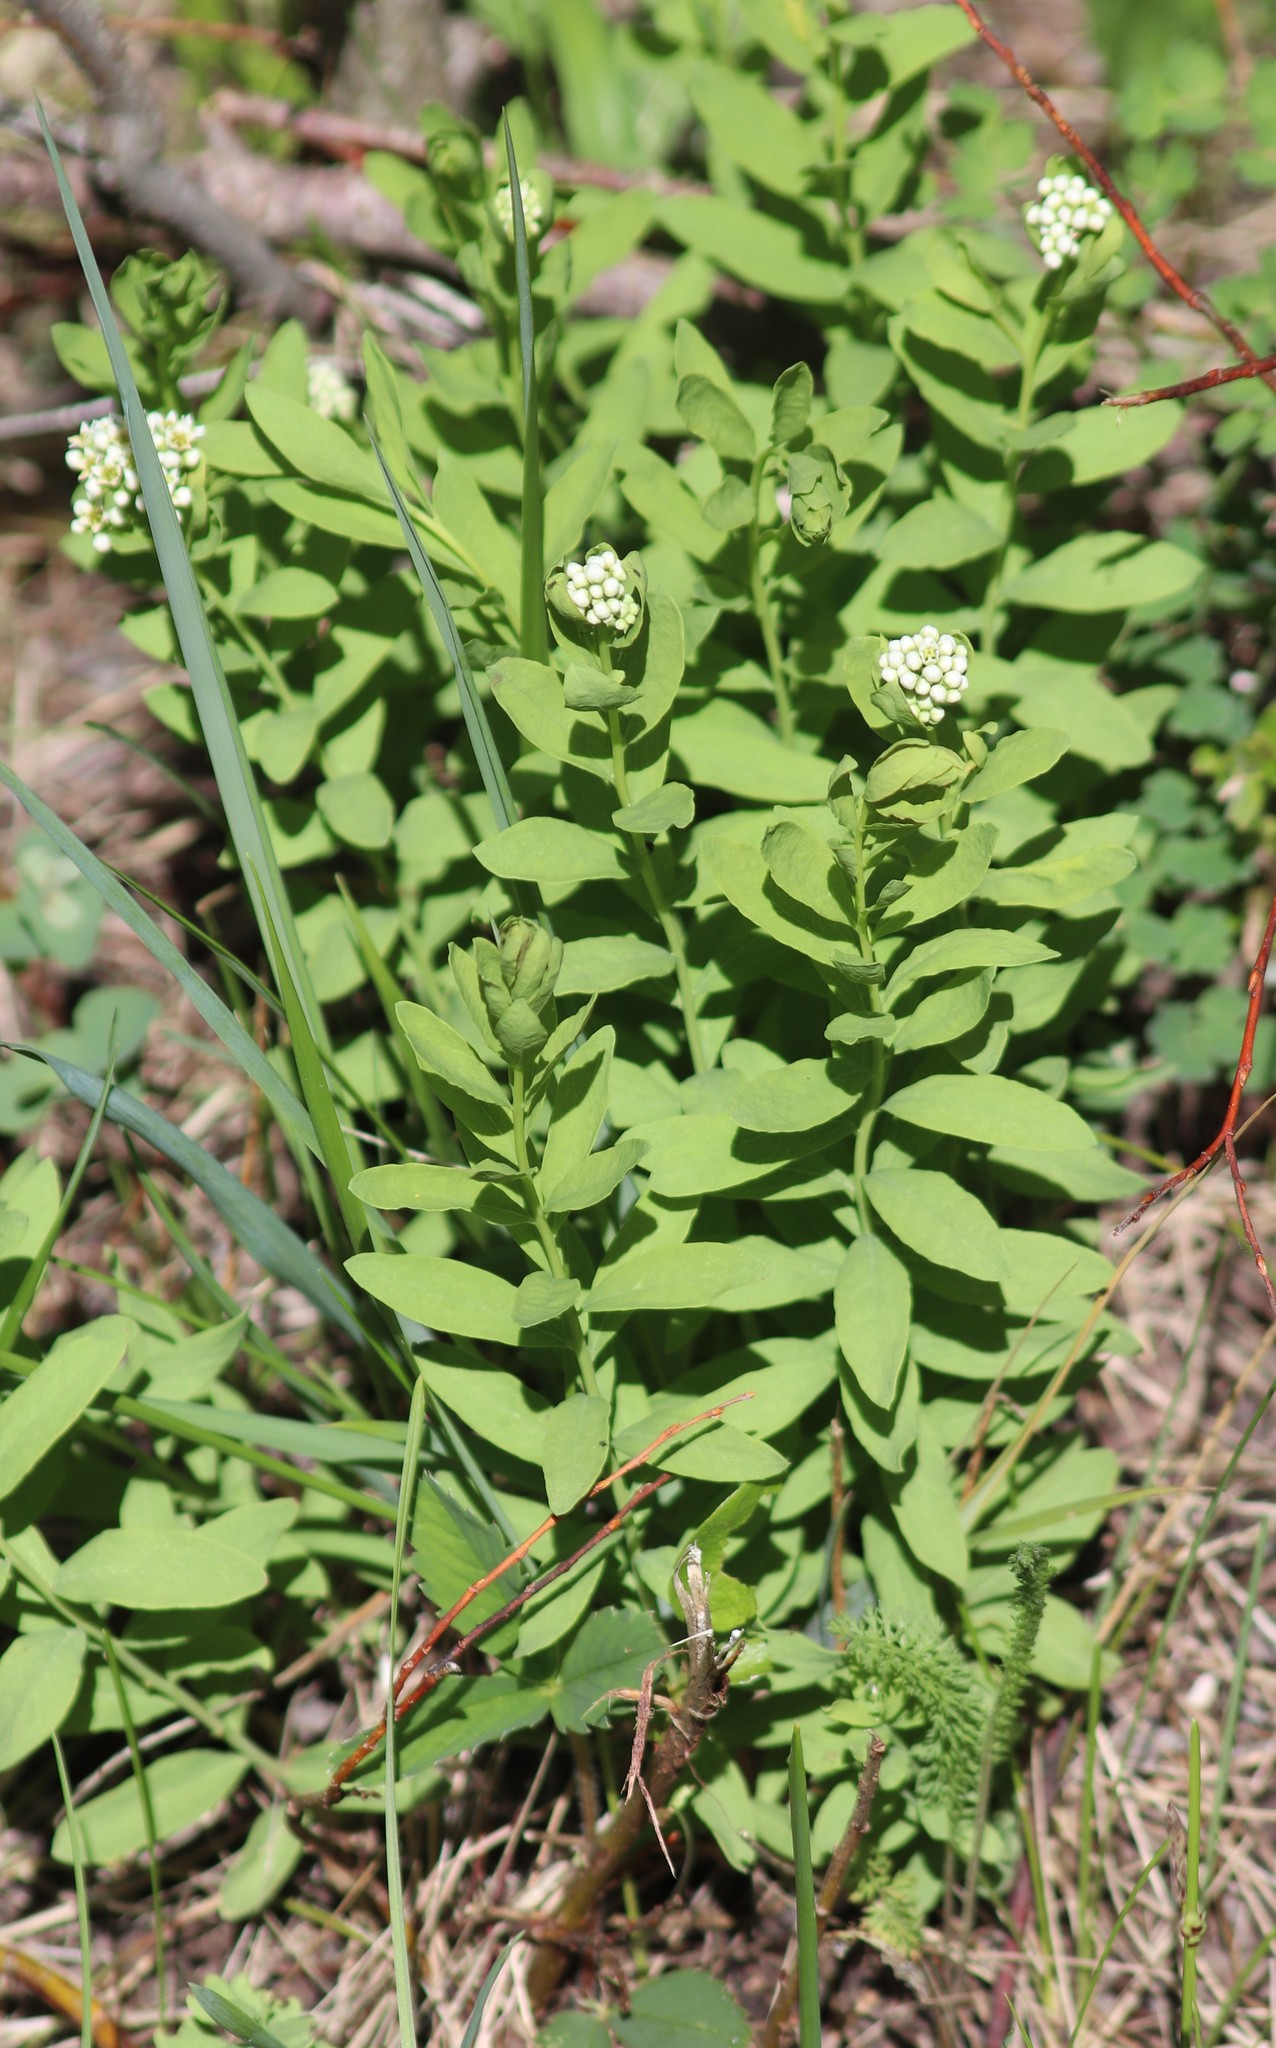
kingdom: Plantae
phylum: Tracheophyta
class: Magnoliopsida
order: Santalales
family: Comandraceae
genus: Comandra
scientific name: Comandra umbellata
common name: Bastard toadflax
